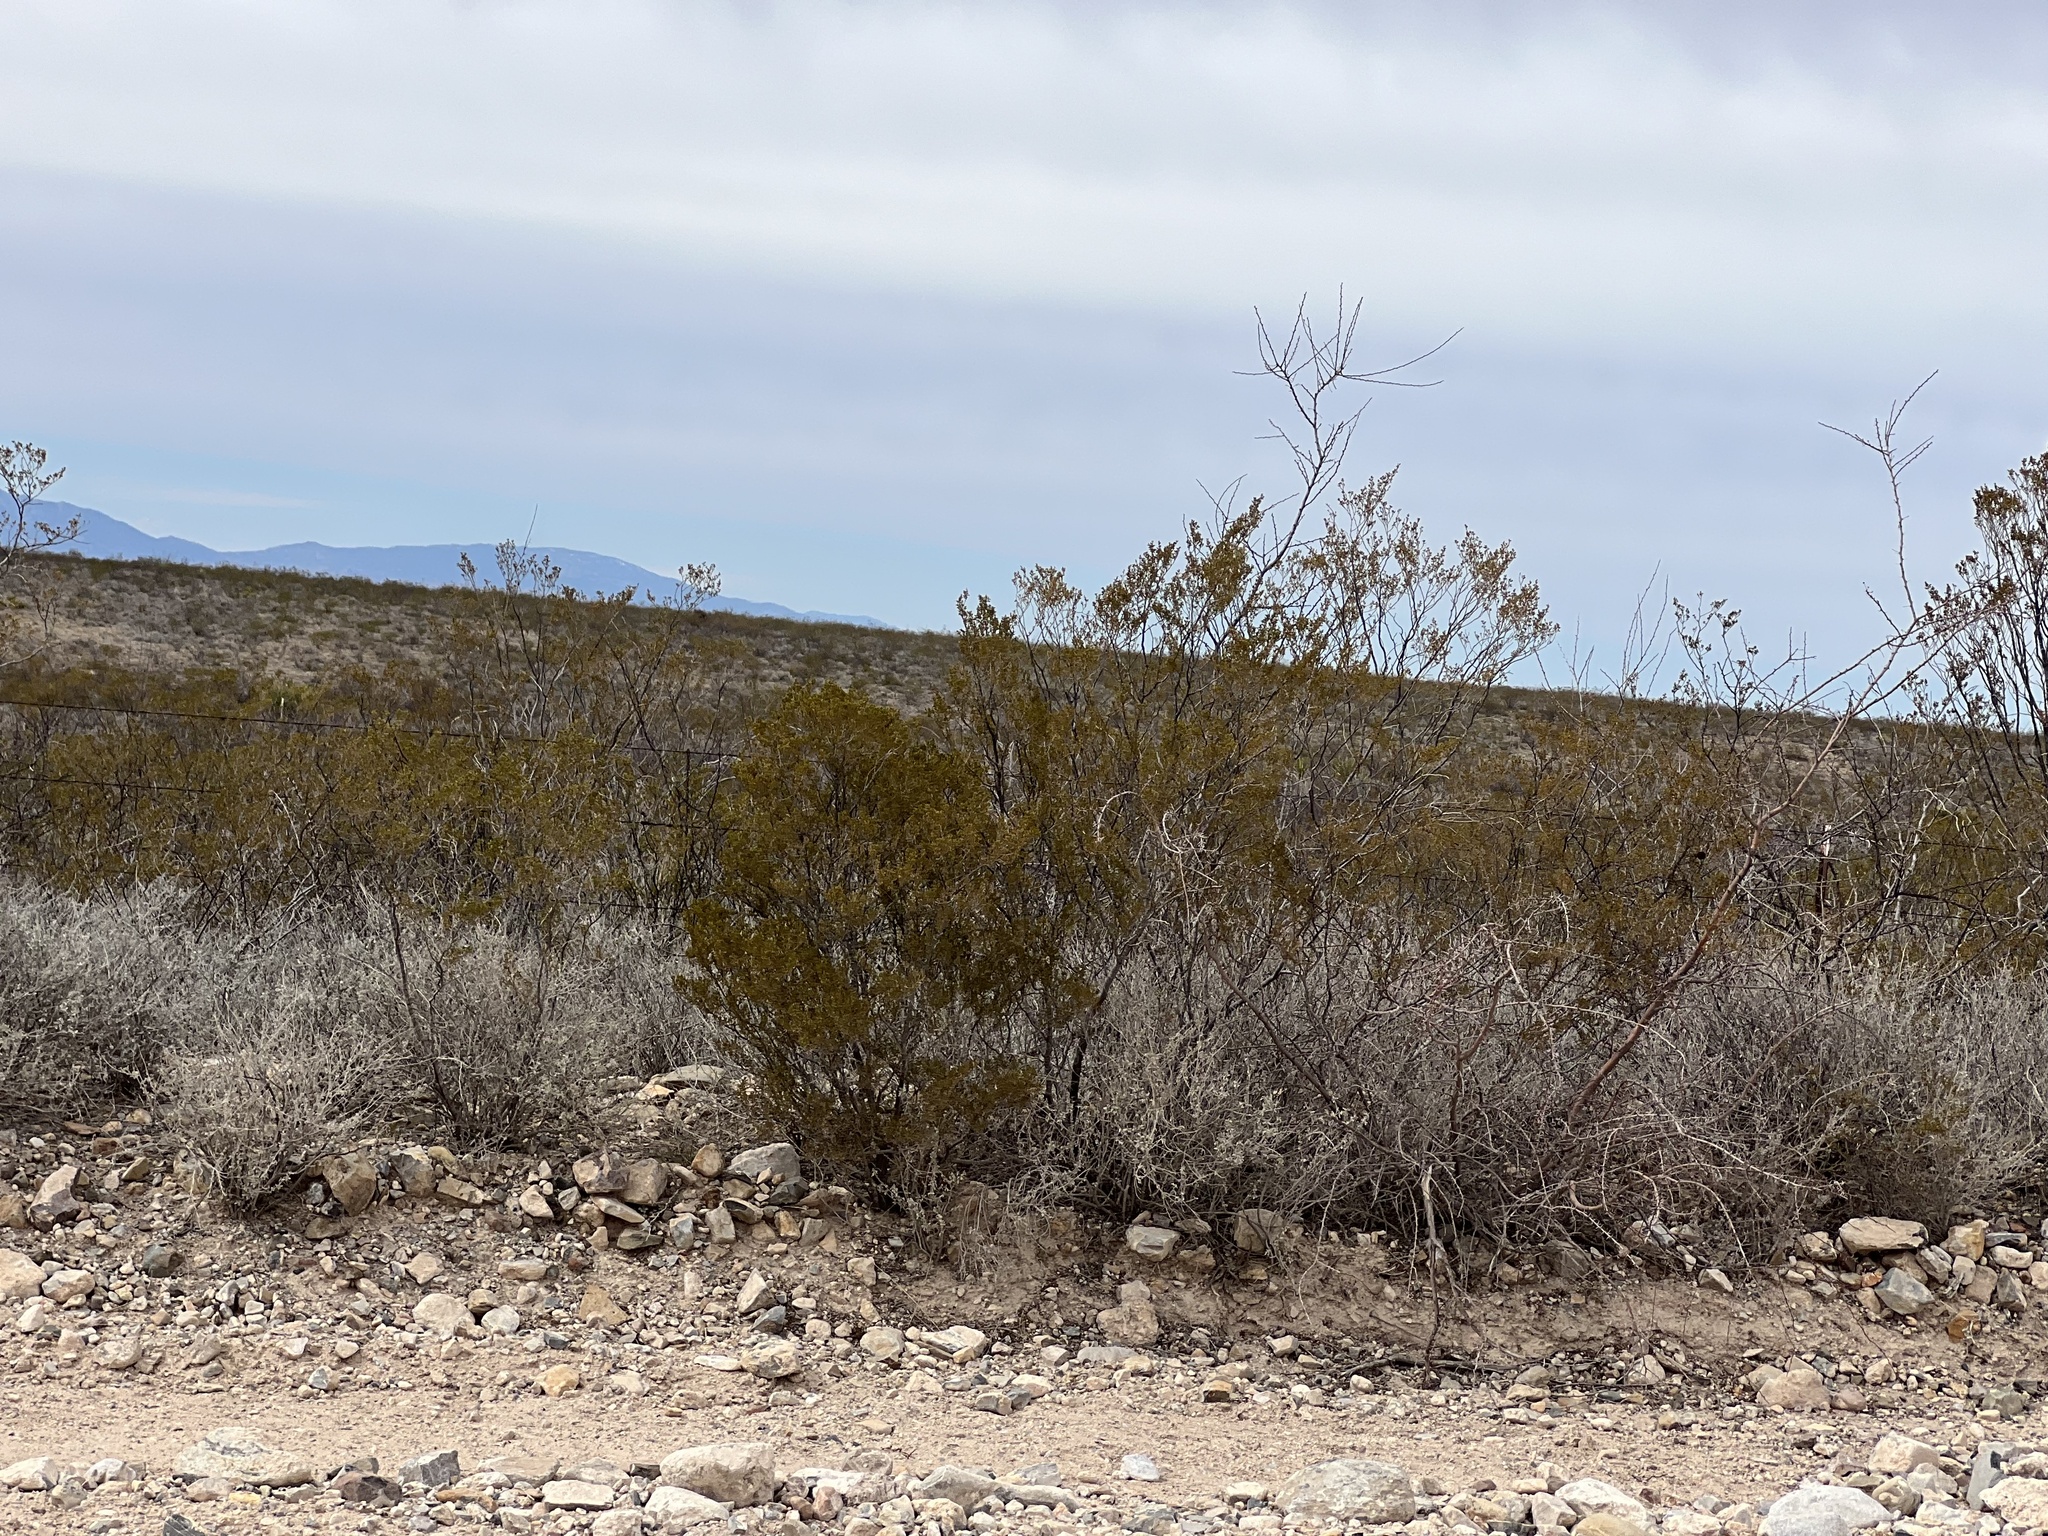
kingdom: Plantae
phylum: Tracheophyta
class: Magnoliopsida
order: Zygophyllales
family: Zygophyllaceae
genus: Larrea
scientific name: Larrea tridentata
